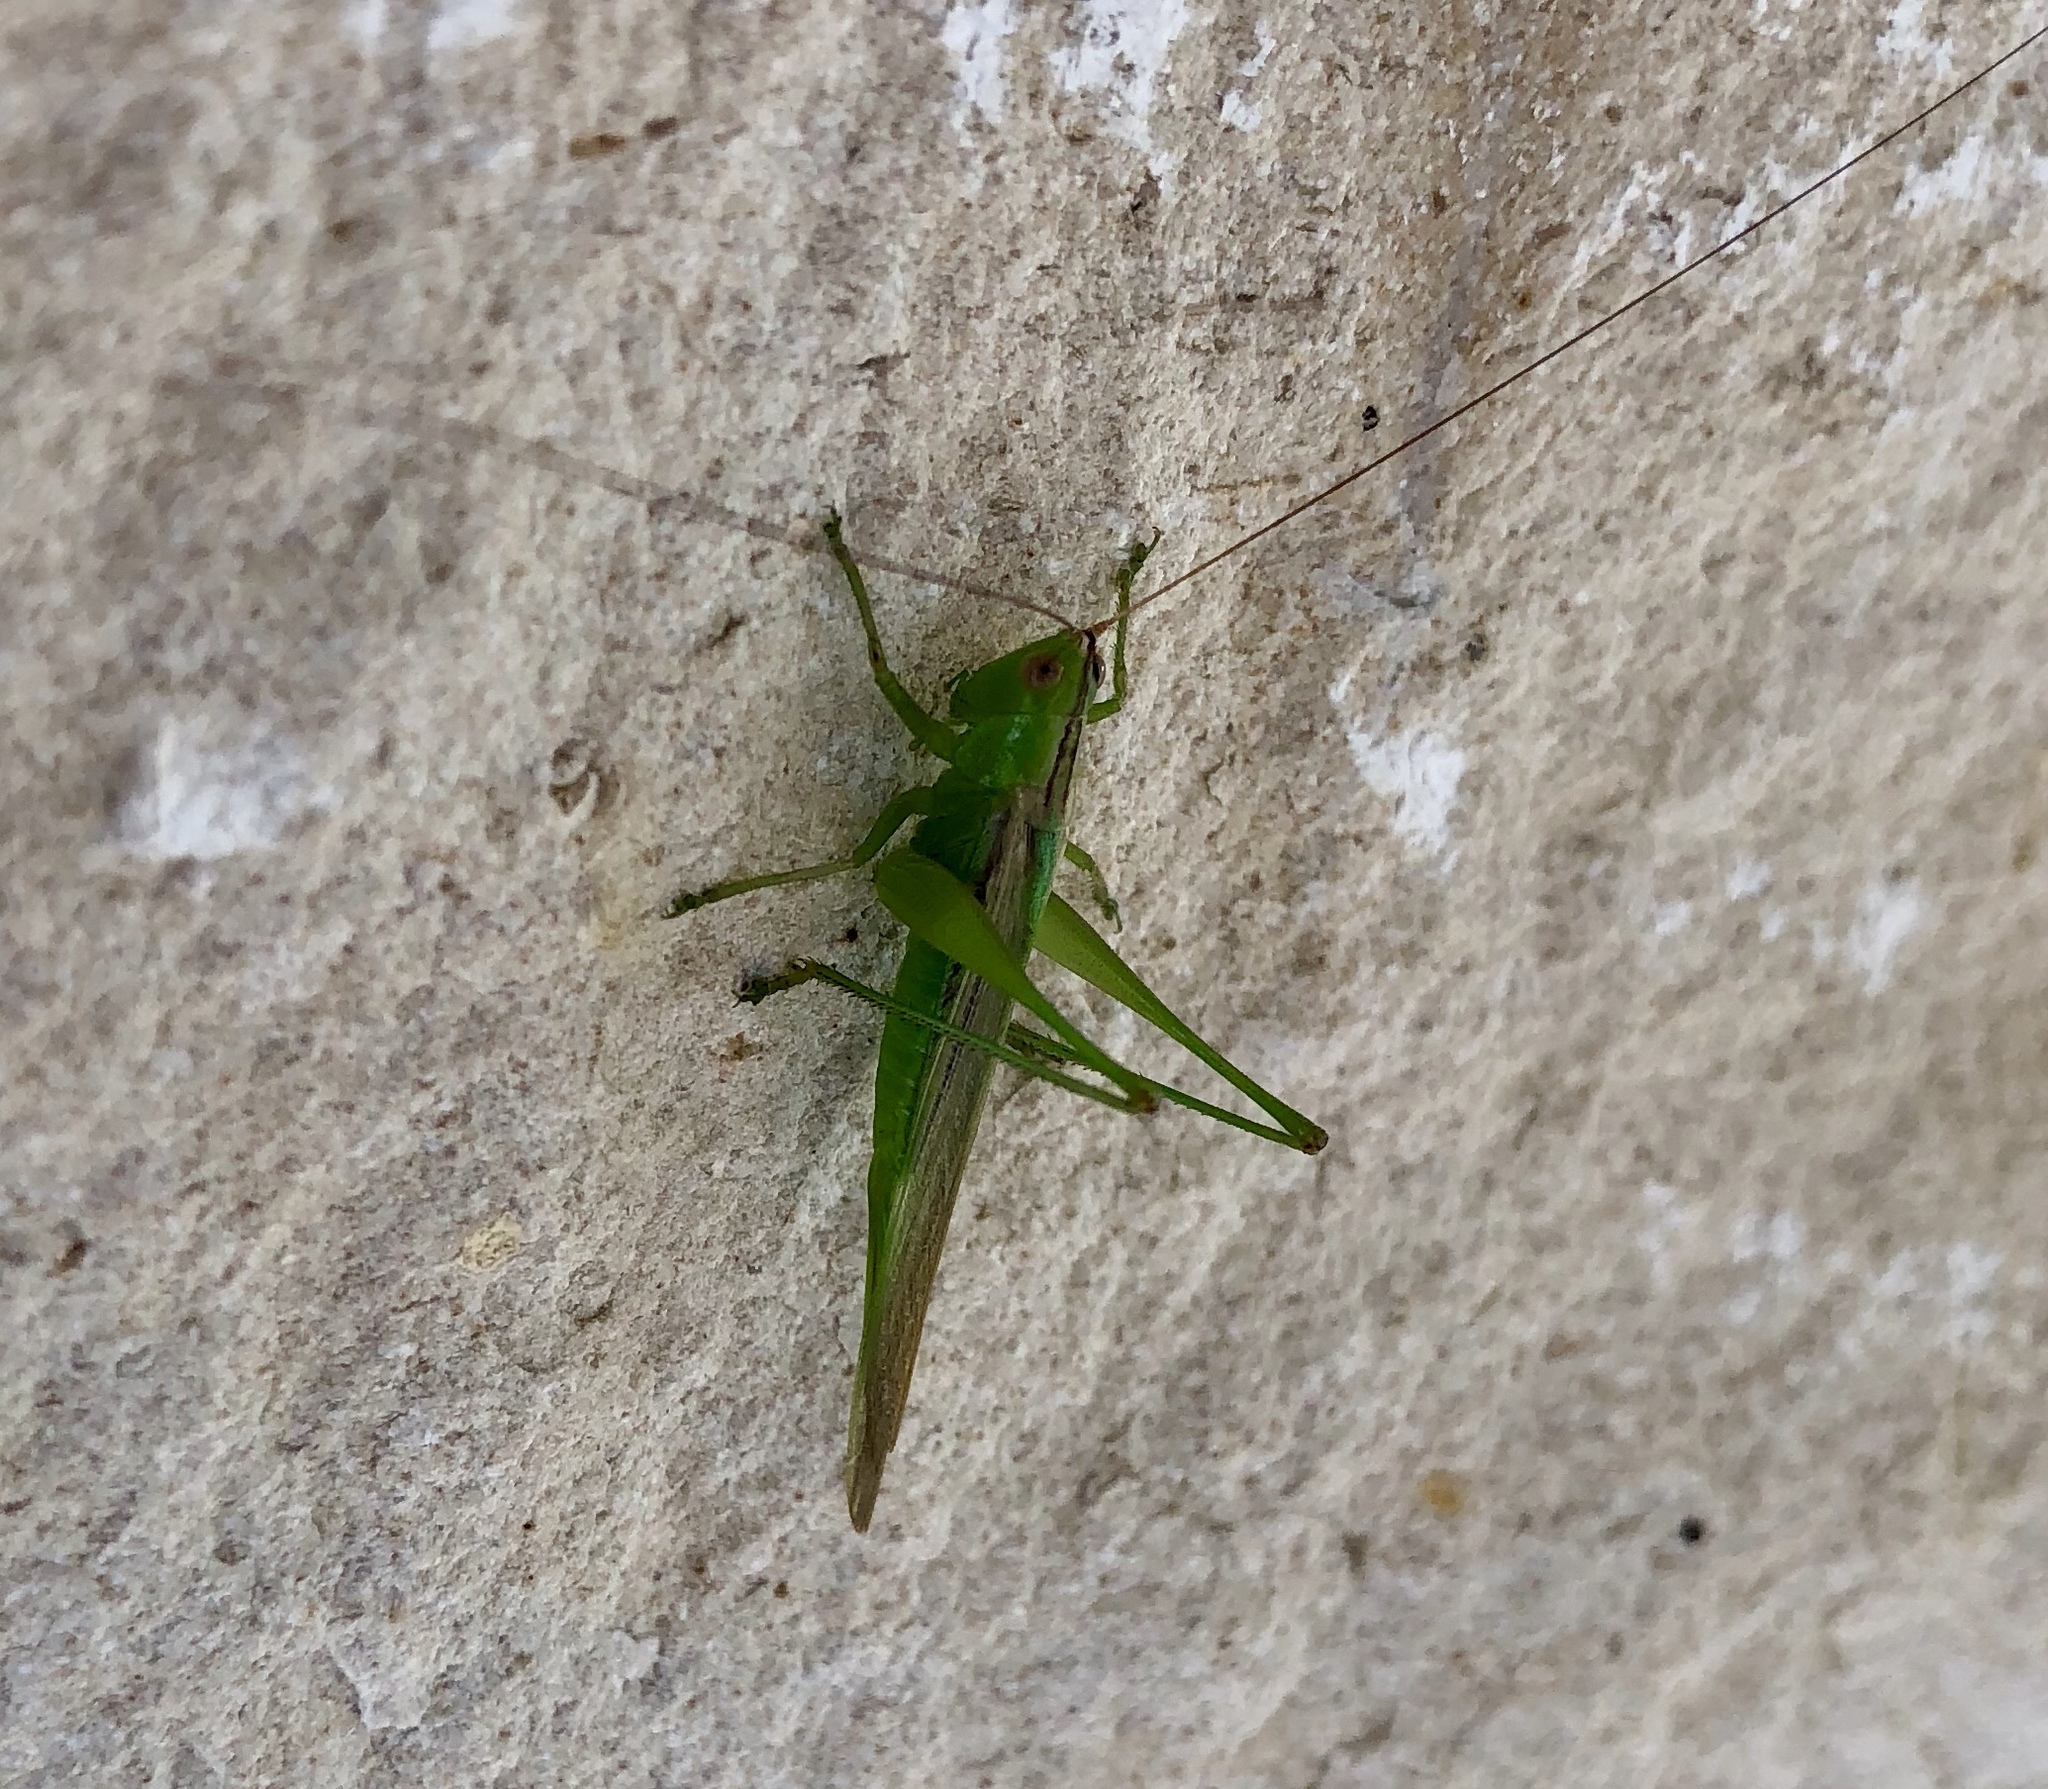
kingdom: Animalia
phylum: Arthropoda
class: Insecta
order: Orthoptera
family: Tettigoniidae
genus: Conocephalus
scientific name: Conocephalus fasciatus
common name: Slender meadow katydid
